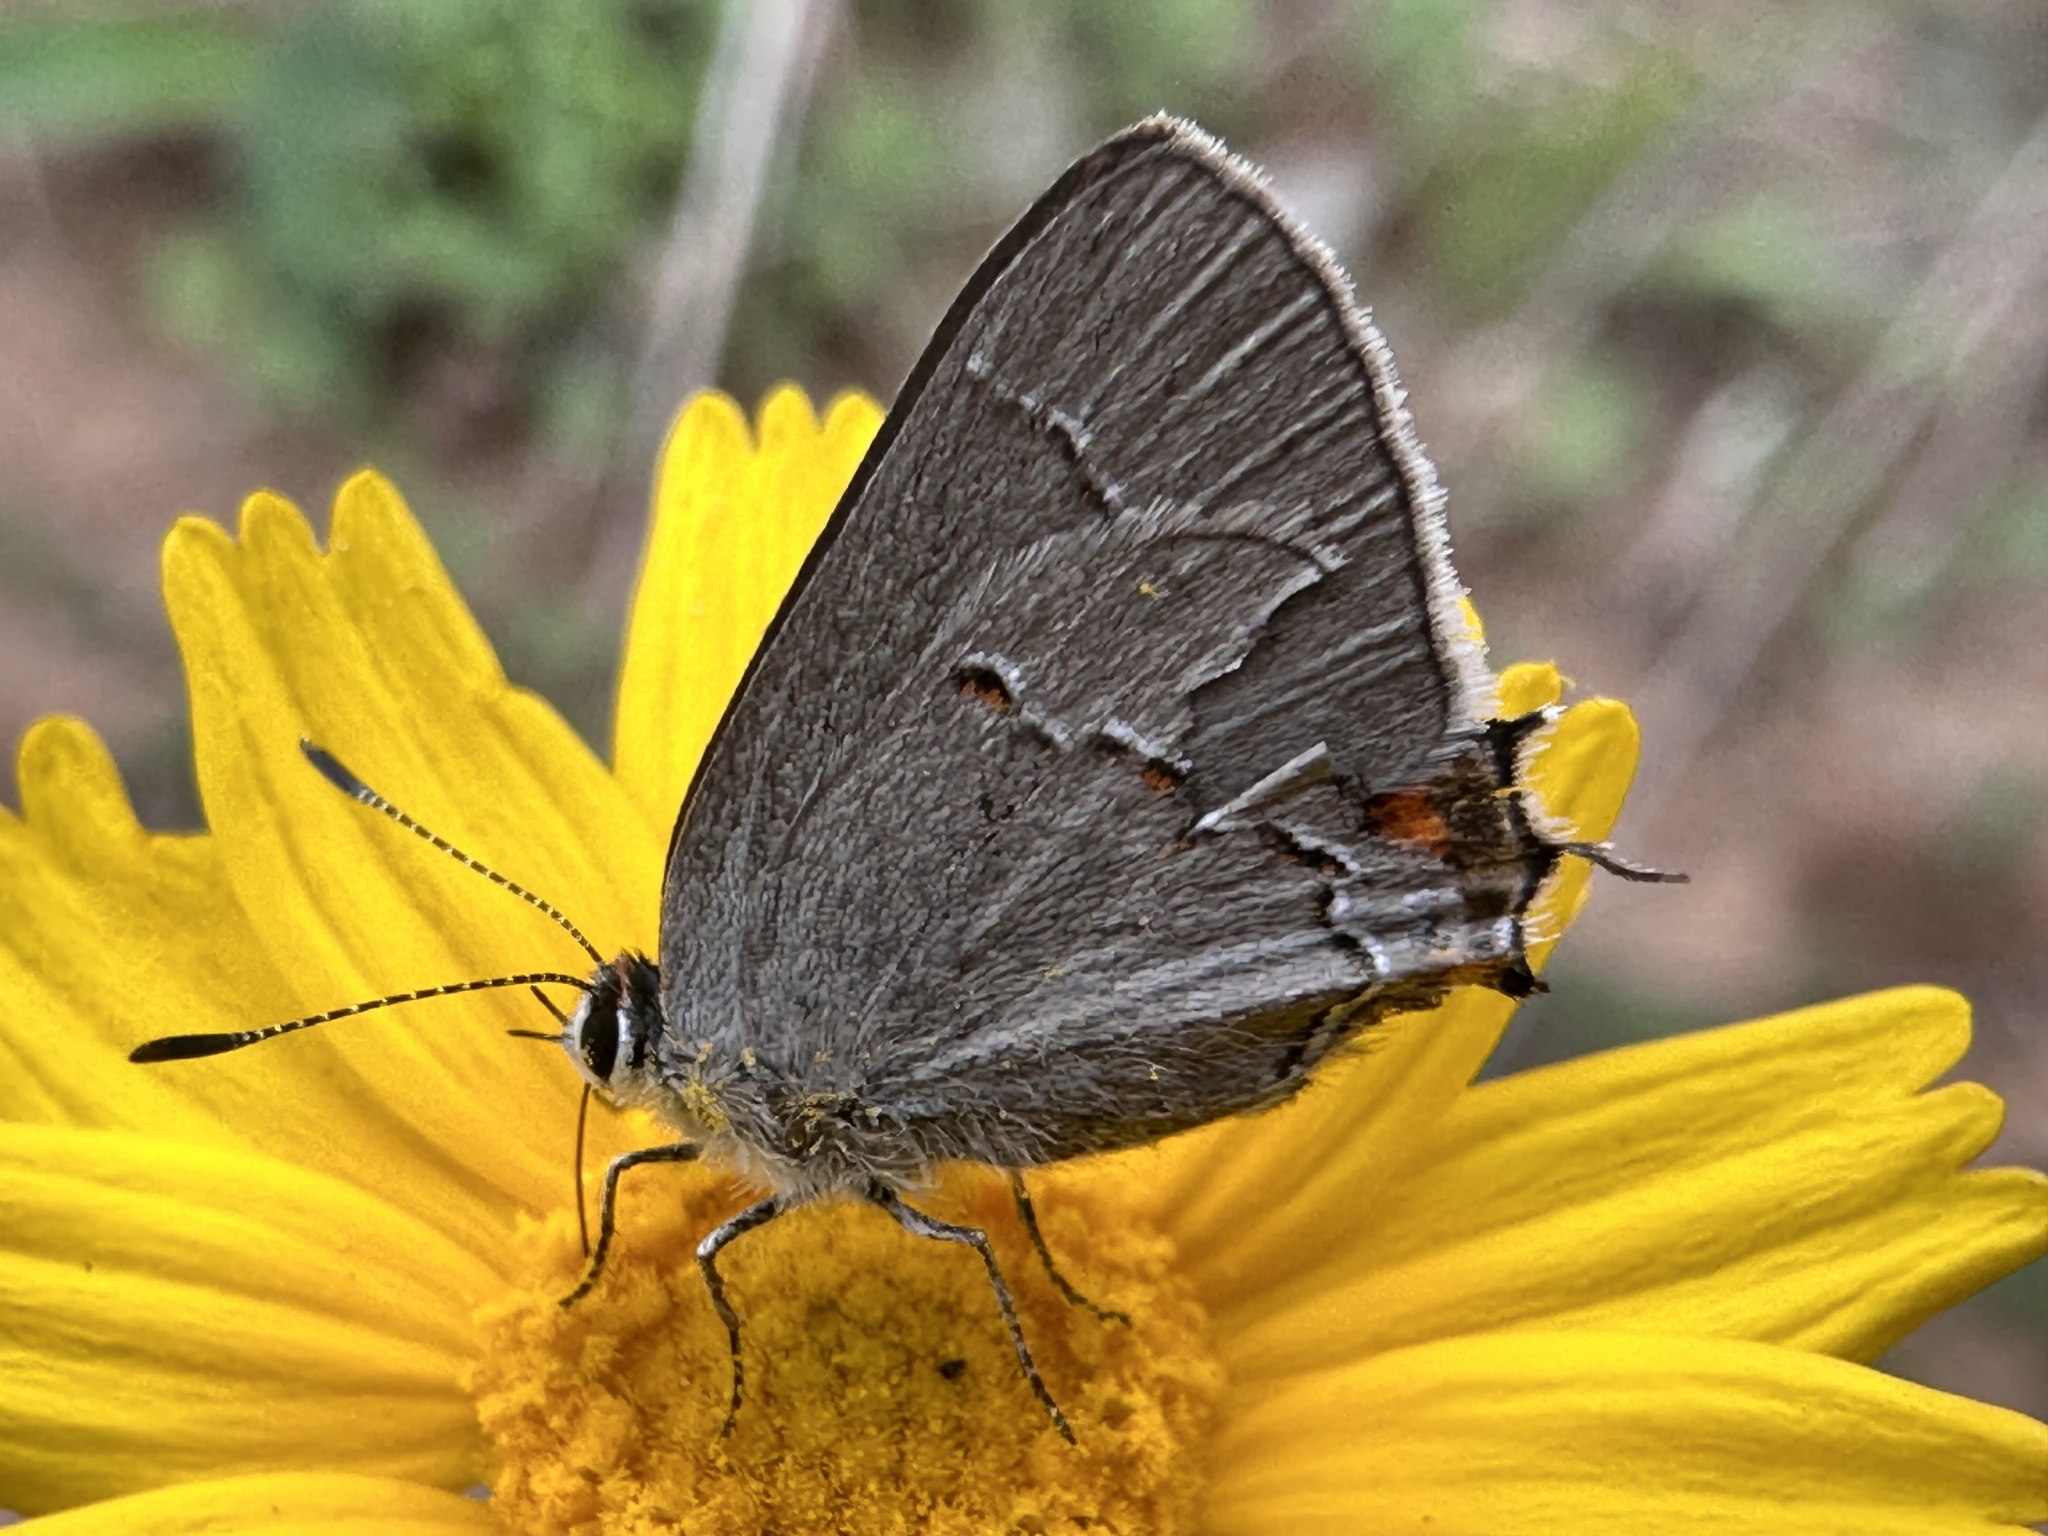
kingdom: Animalia
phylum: Arthropoda
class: Insecta
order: Lepidoptera
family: Lycaenidae
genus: Strymon
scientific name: Strymon melinus
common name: Gray hairstreak
